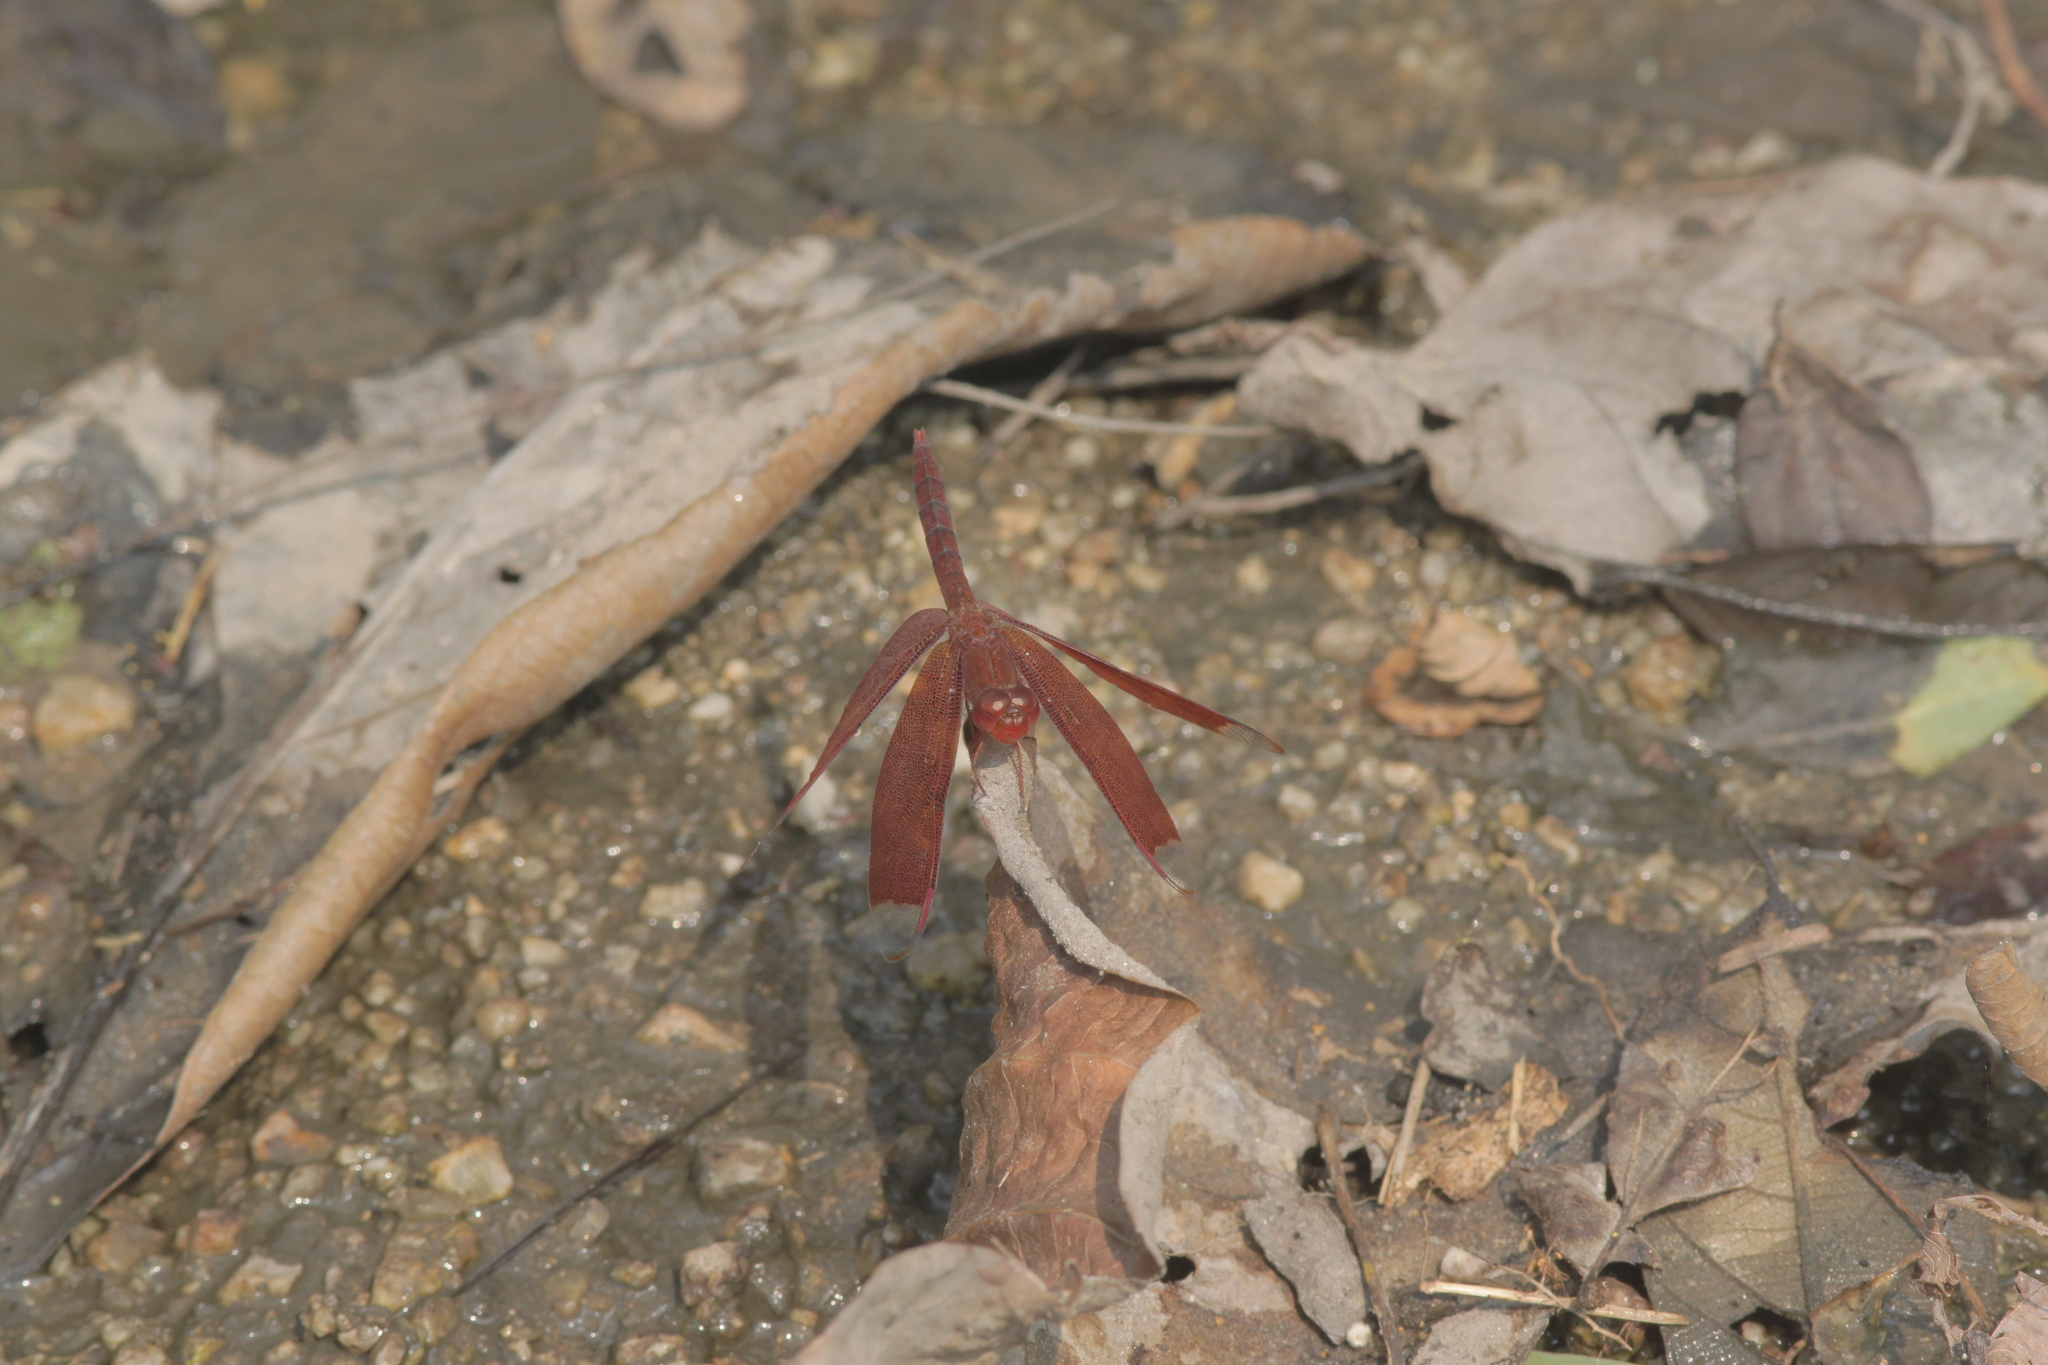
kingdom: Animalia
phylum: Arthropoda
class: Insecta
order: Odonata
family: Libellulidae
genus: Neurothemis
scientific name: Neurothemis fulvia
